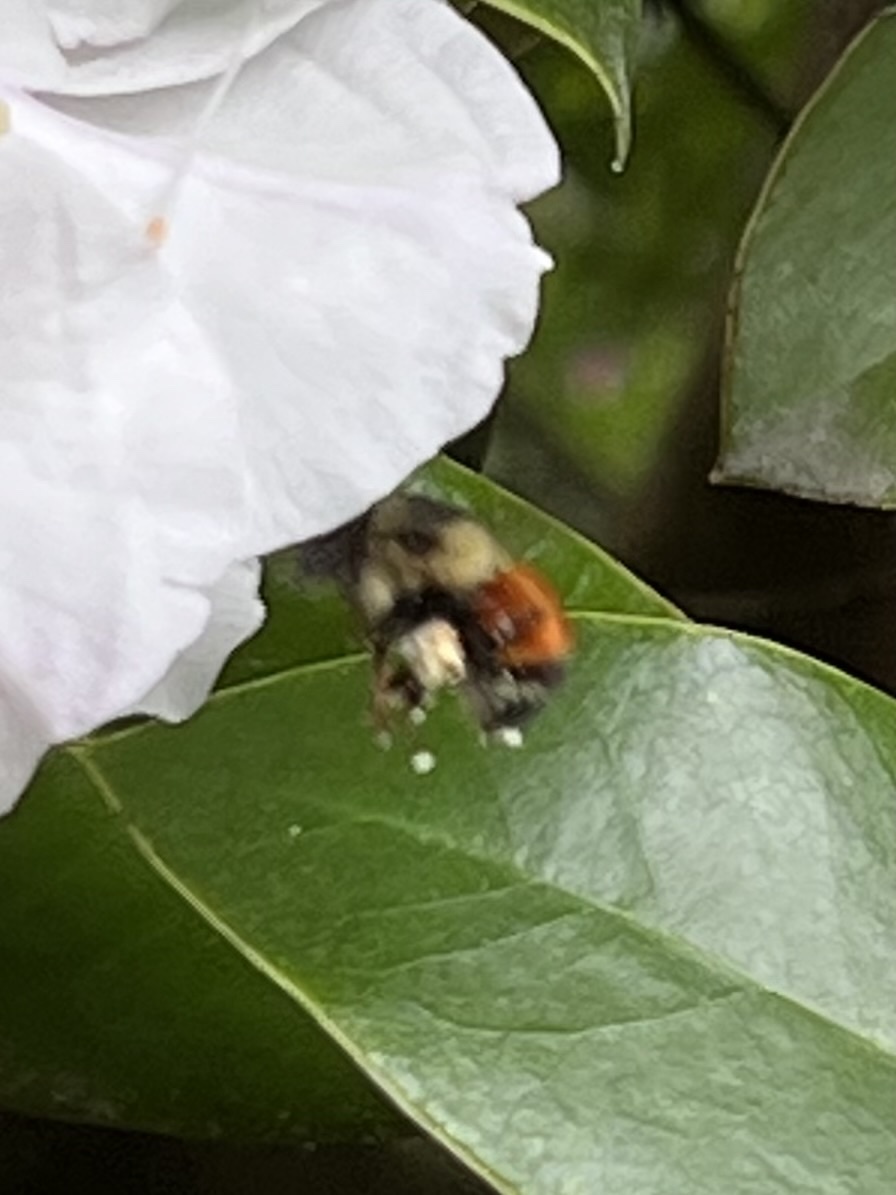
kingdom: Animalia
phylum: Arthropoda
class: Insecta
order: Hymenoptera
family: Apidae
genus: Bombus
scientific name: Bombus melanopygus
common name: Black tail bumble bee
